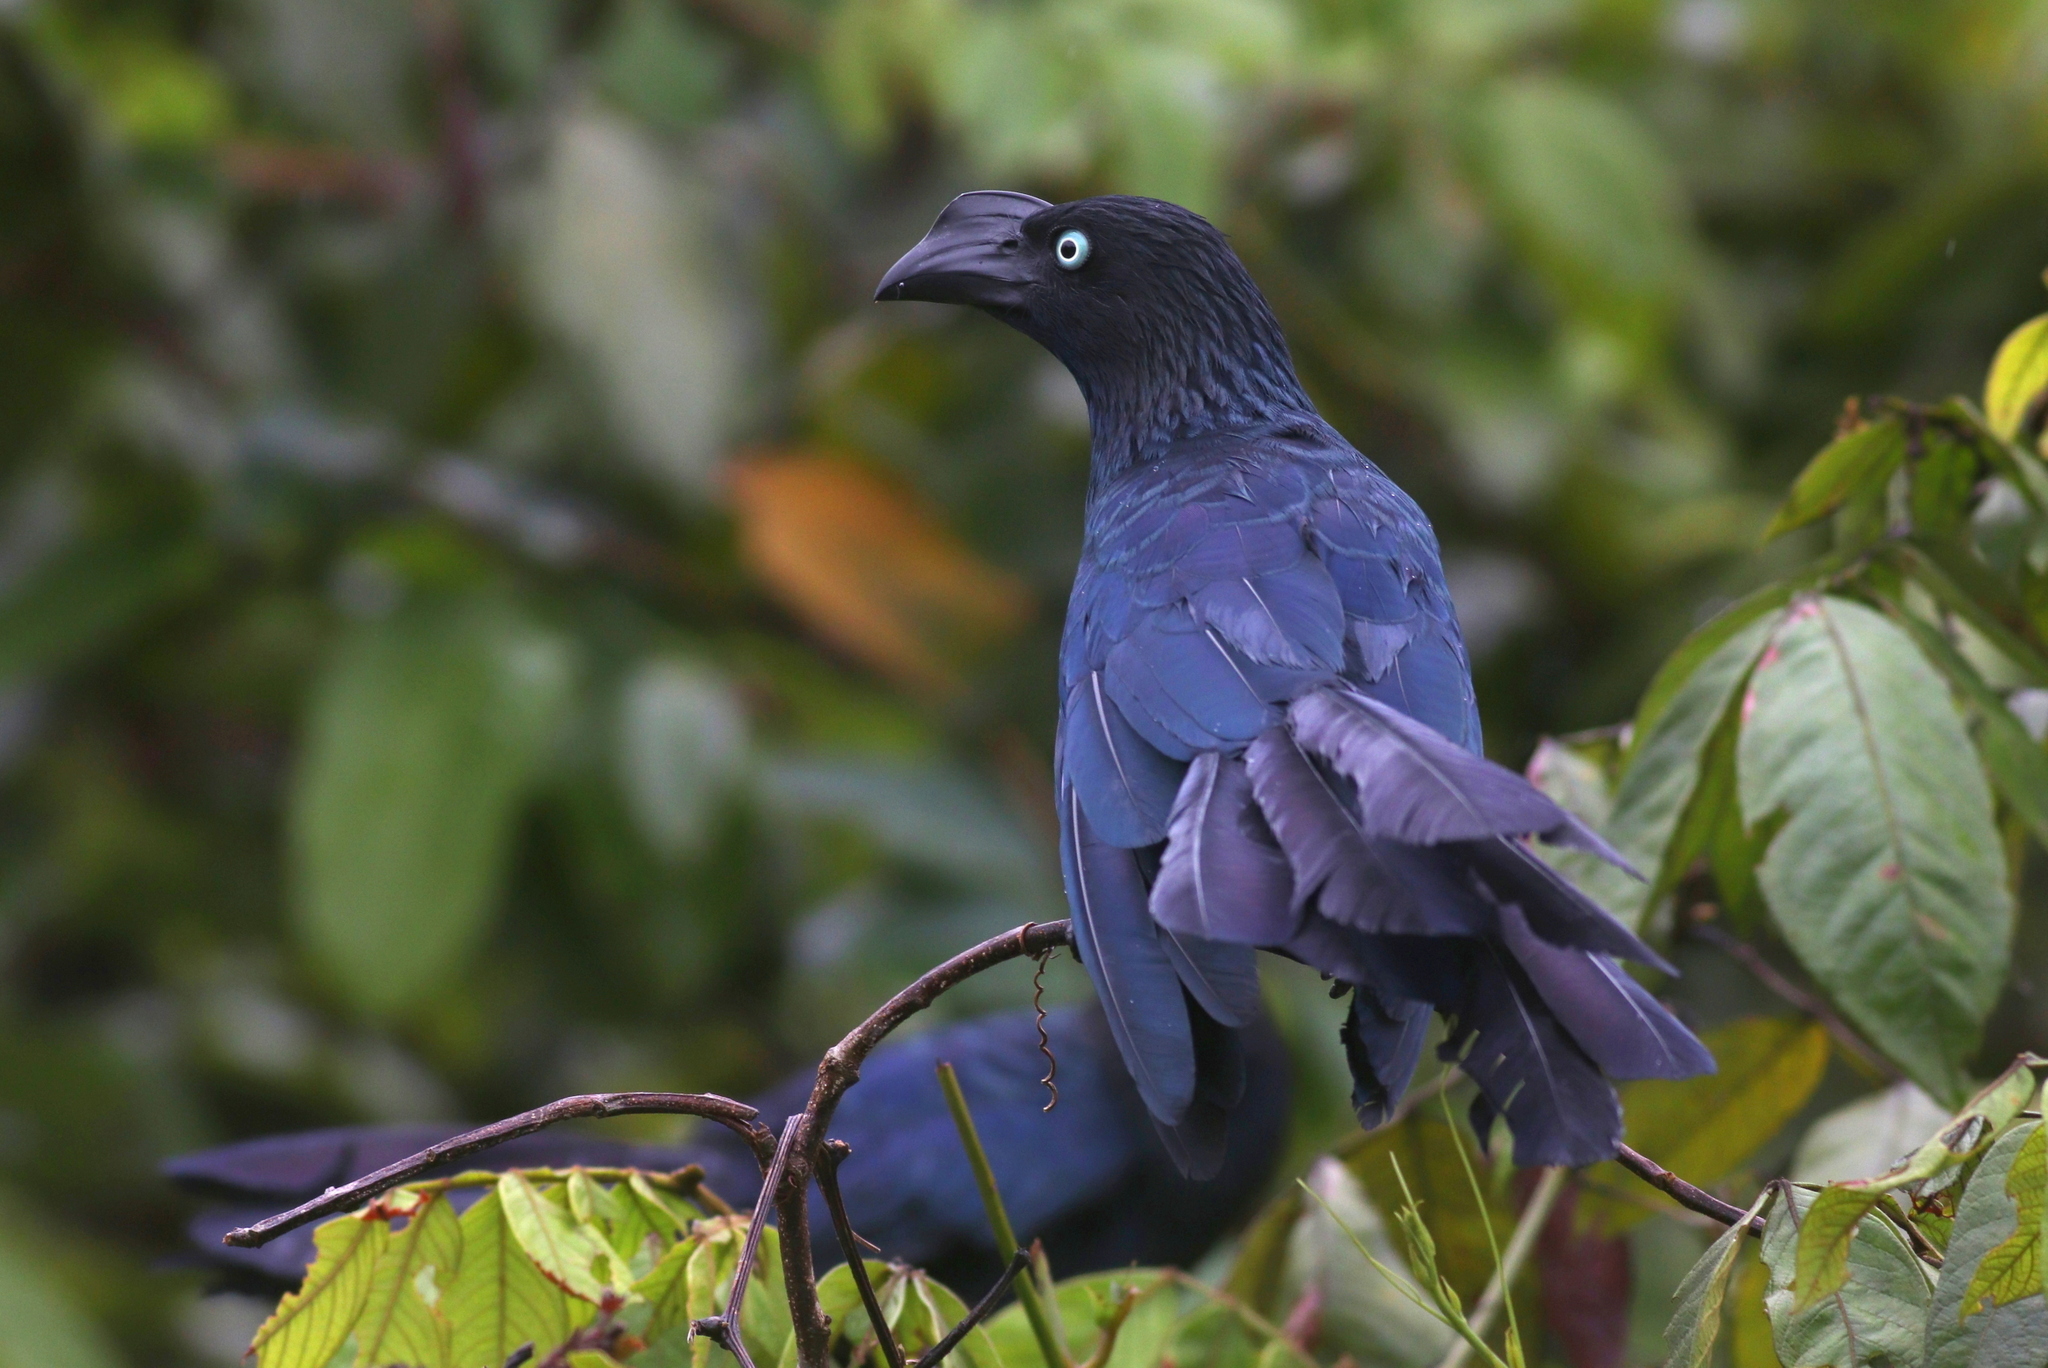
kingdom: Animalia
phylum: Chordata
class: Aves
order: Cuculiformes
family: Cuculidae
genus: Crotophaga
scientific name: Crotophaga major
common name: Greater ani
